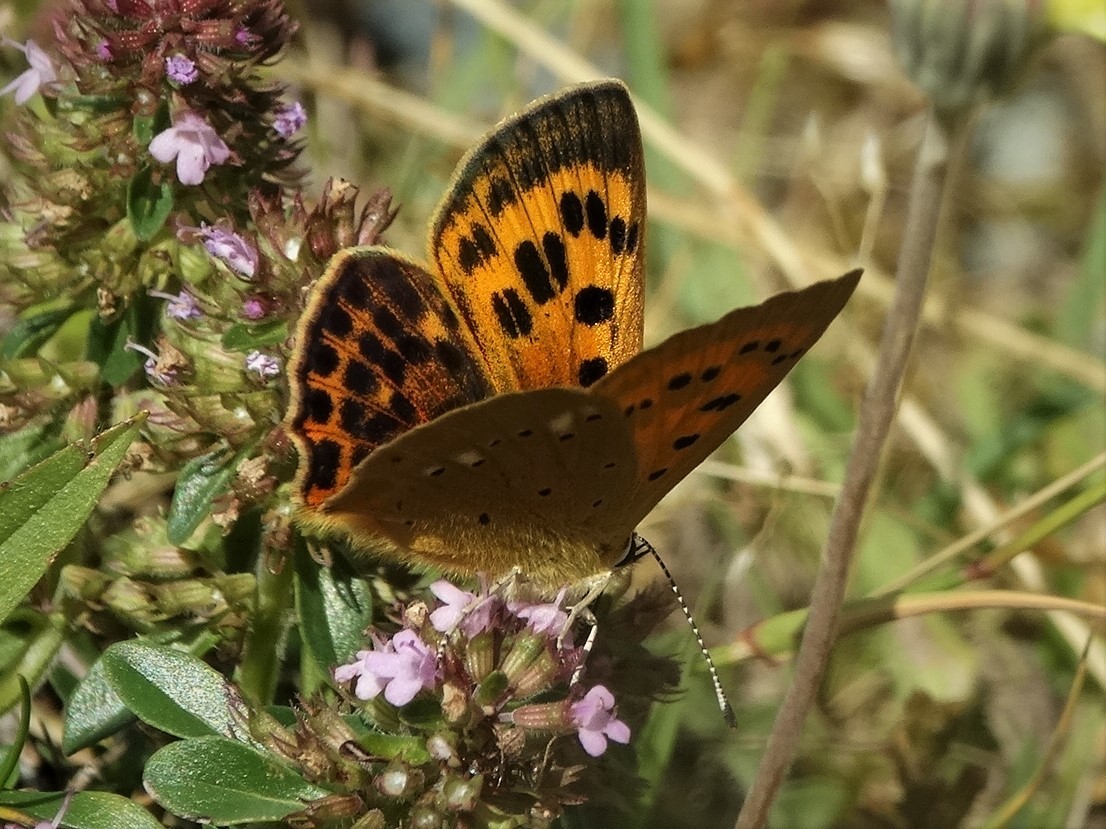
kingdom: Animalia
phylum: Arthropoda
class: Insecta
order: Lepidoptera
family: Lycaenidae
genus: Lycaena
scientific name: Lycaena virgaureae
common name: Scarce copper
